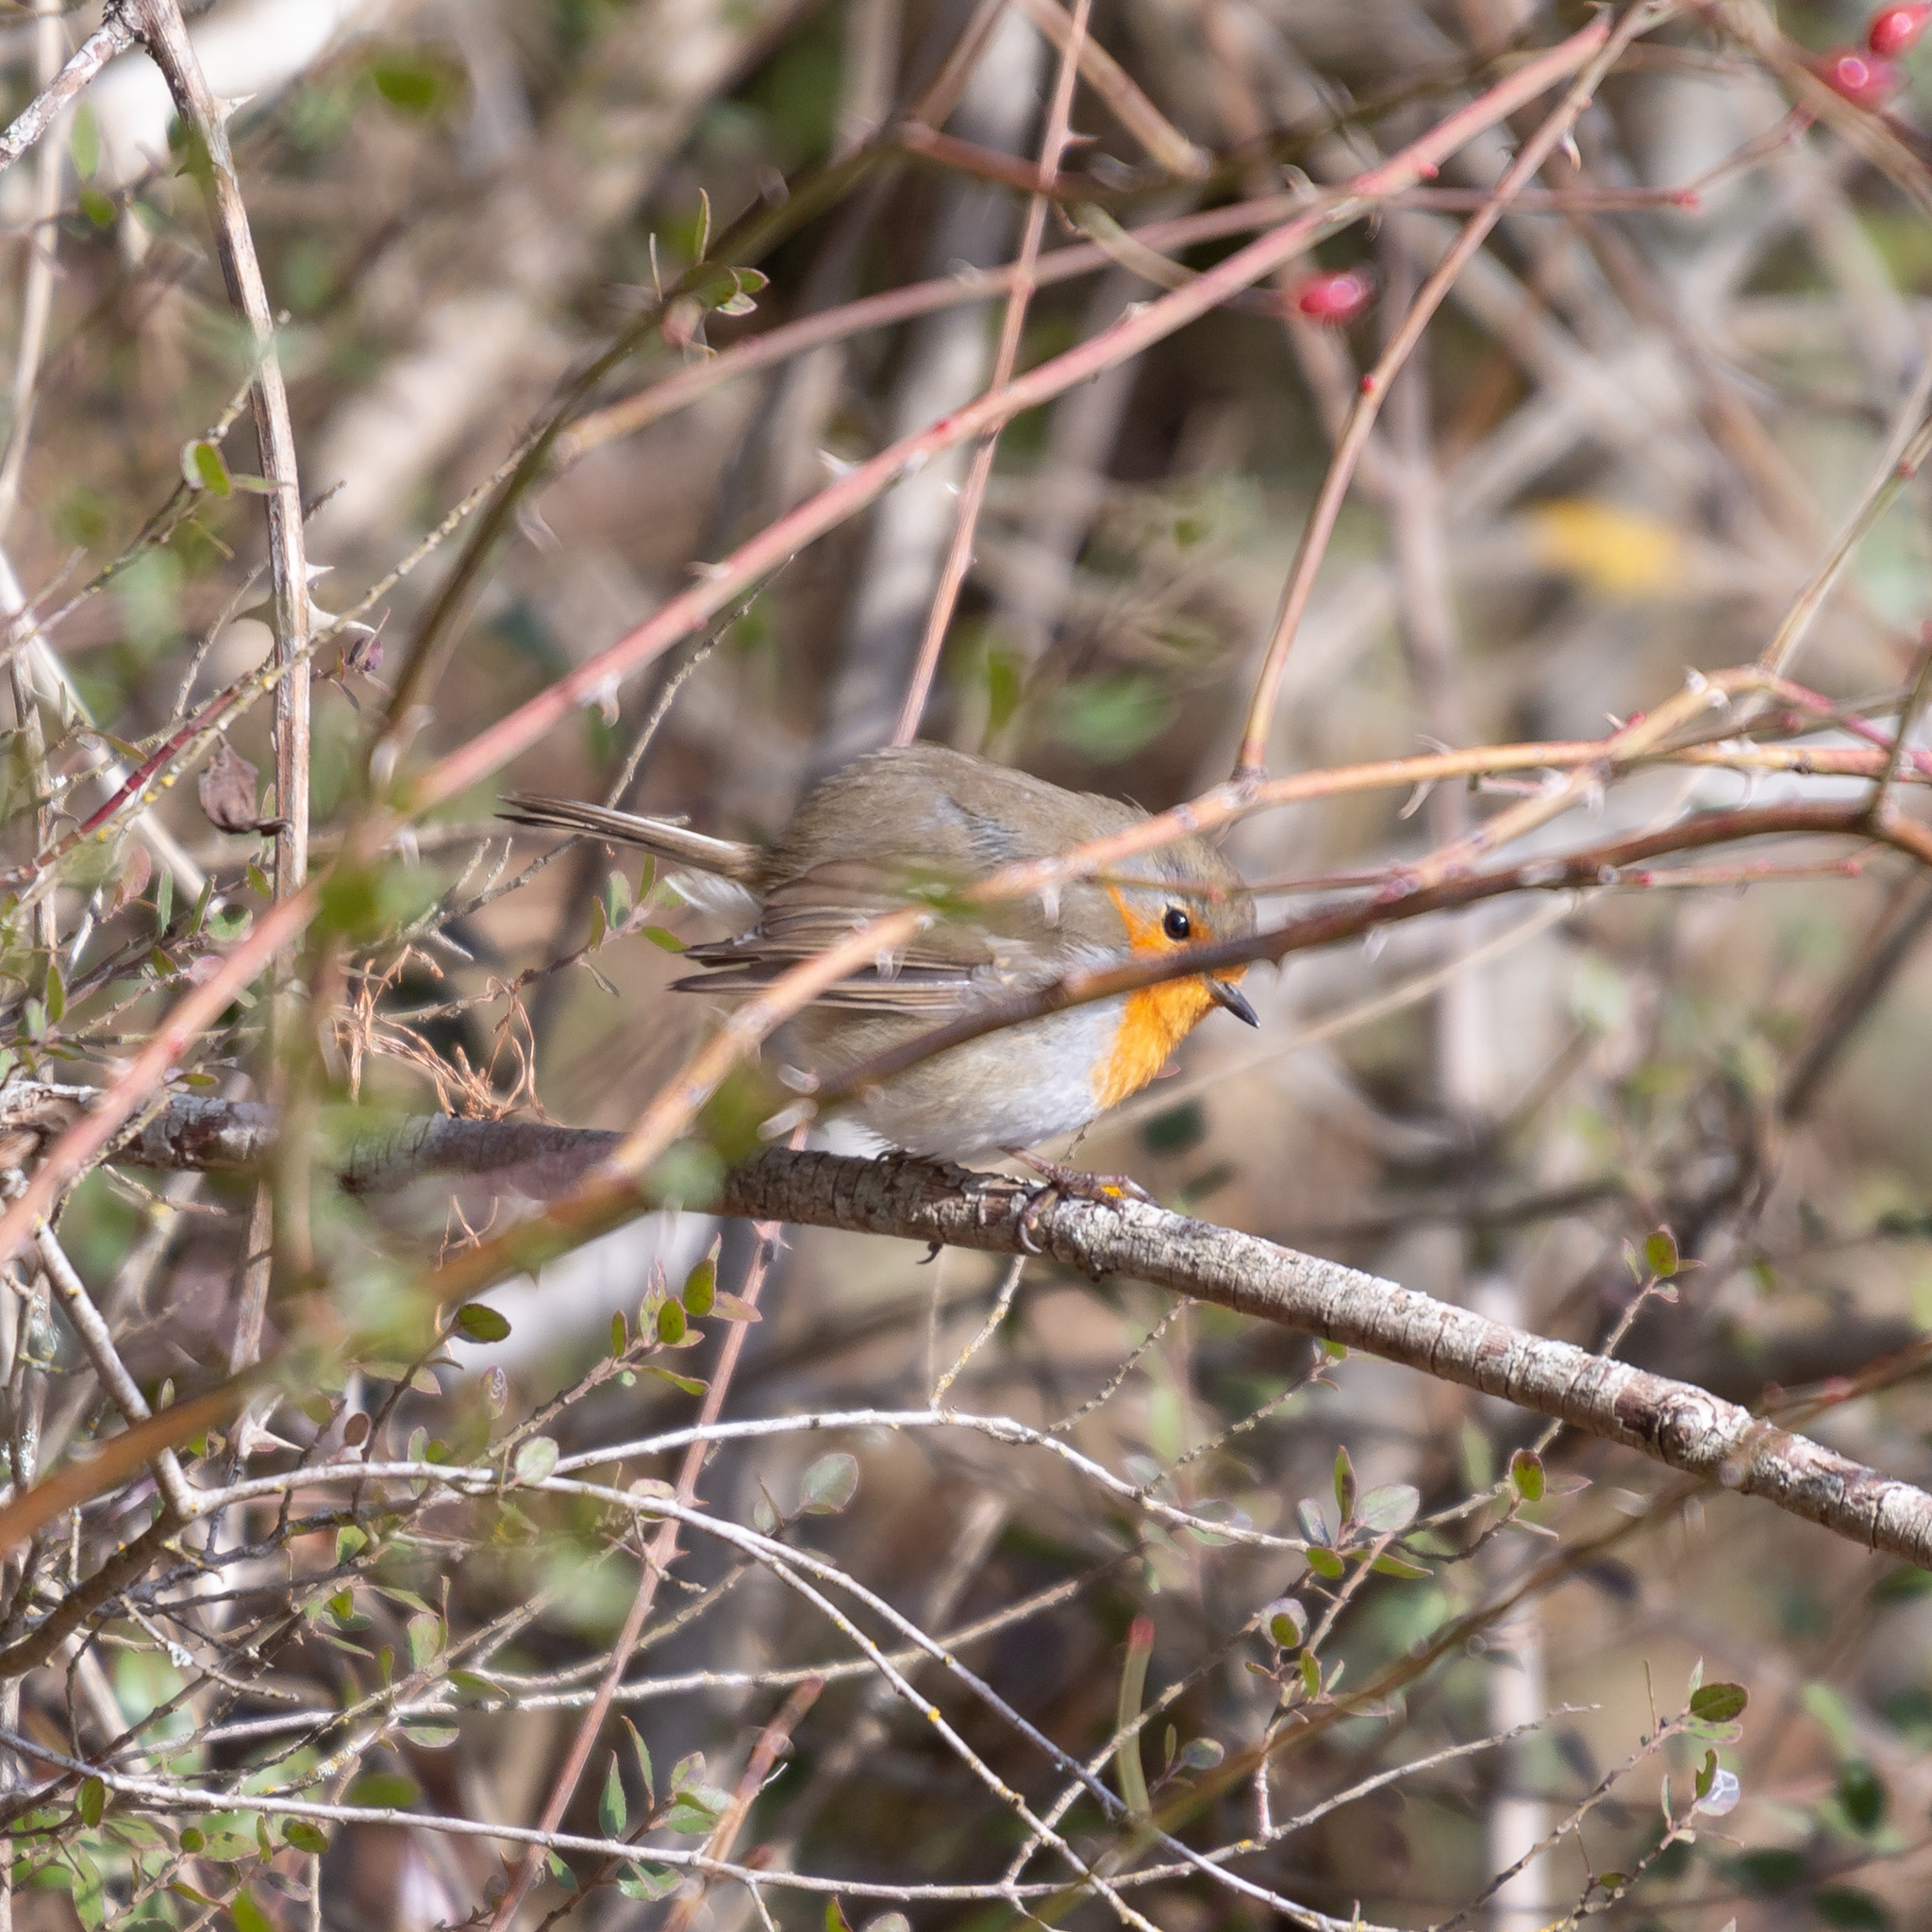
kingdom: Animalia
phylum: Chordata
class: Aves
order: Passeriformes
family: Muscicapidae
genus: Erithacus
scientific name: Erithacus rubecula
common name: European robin
